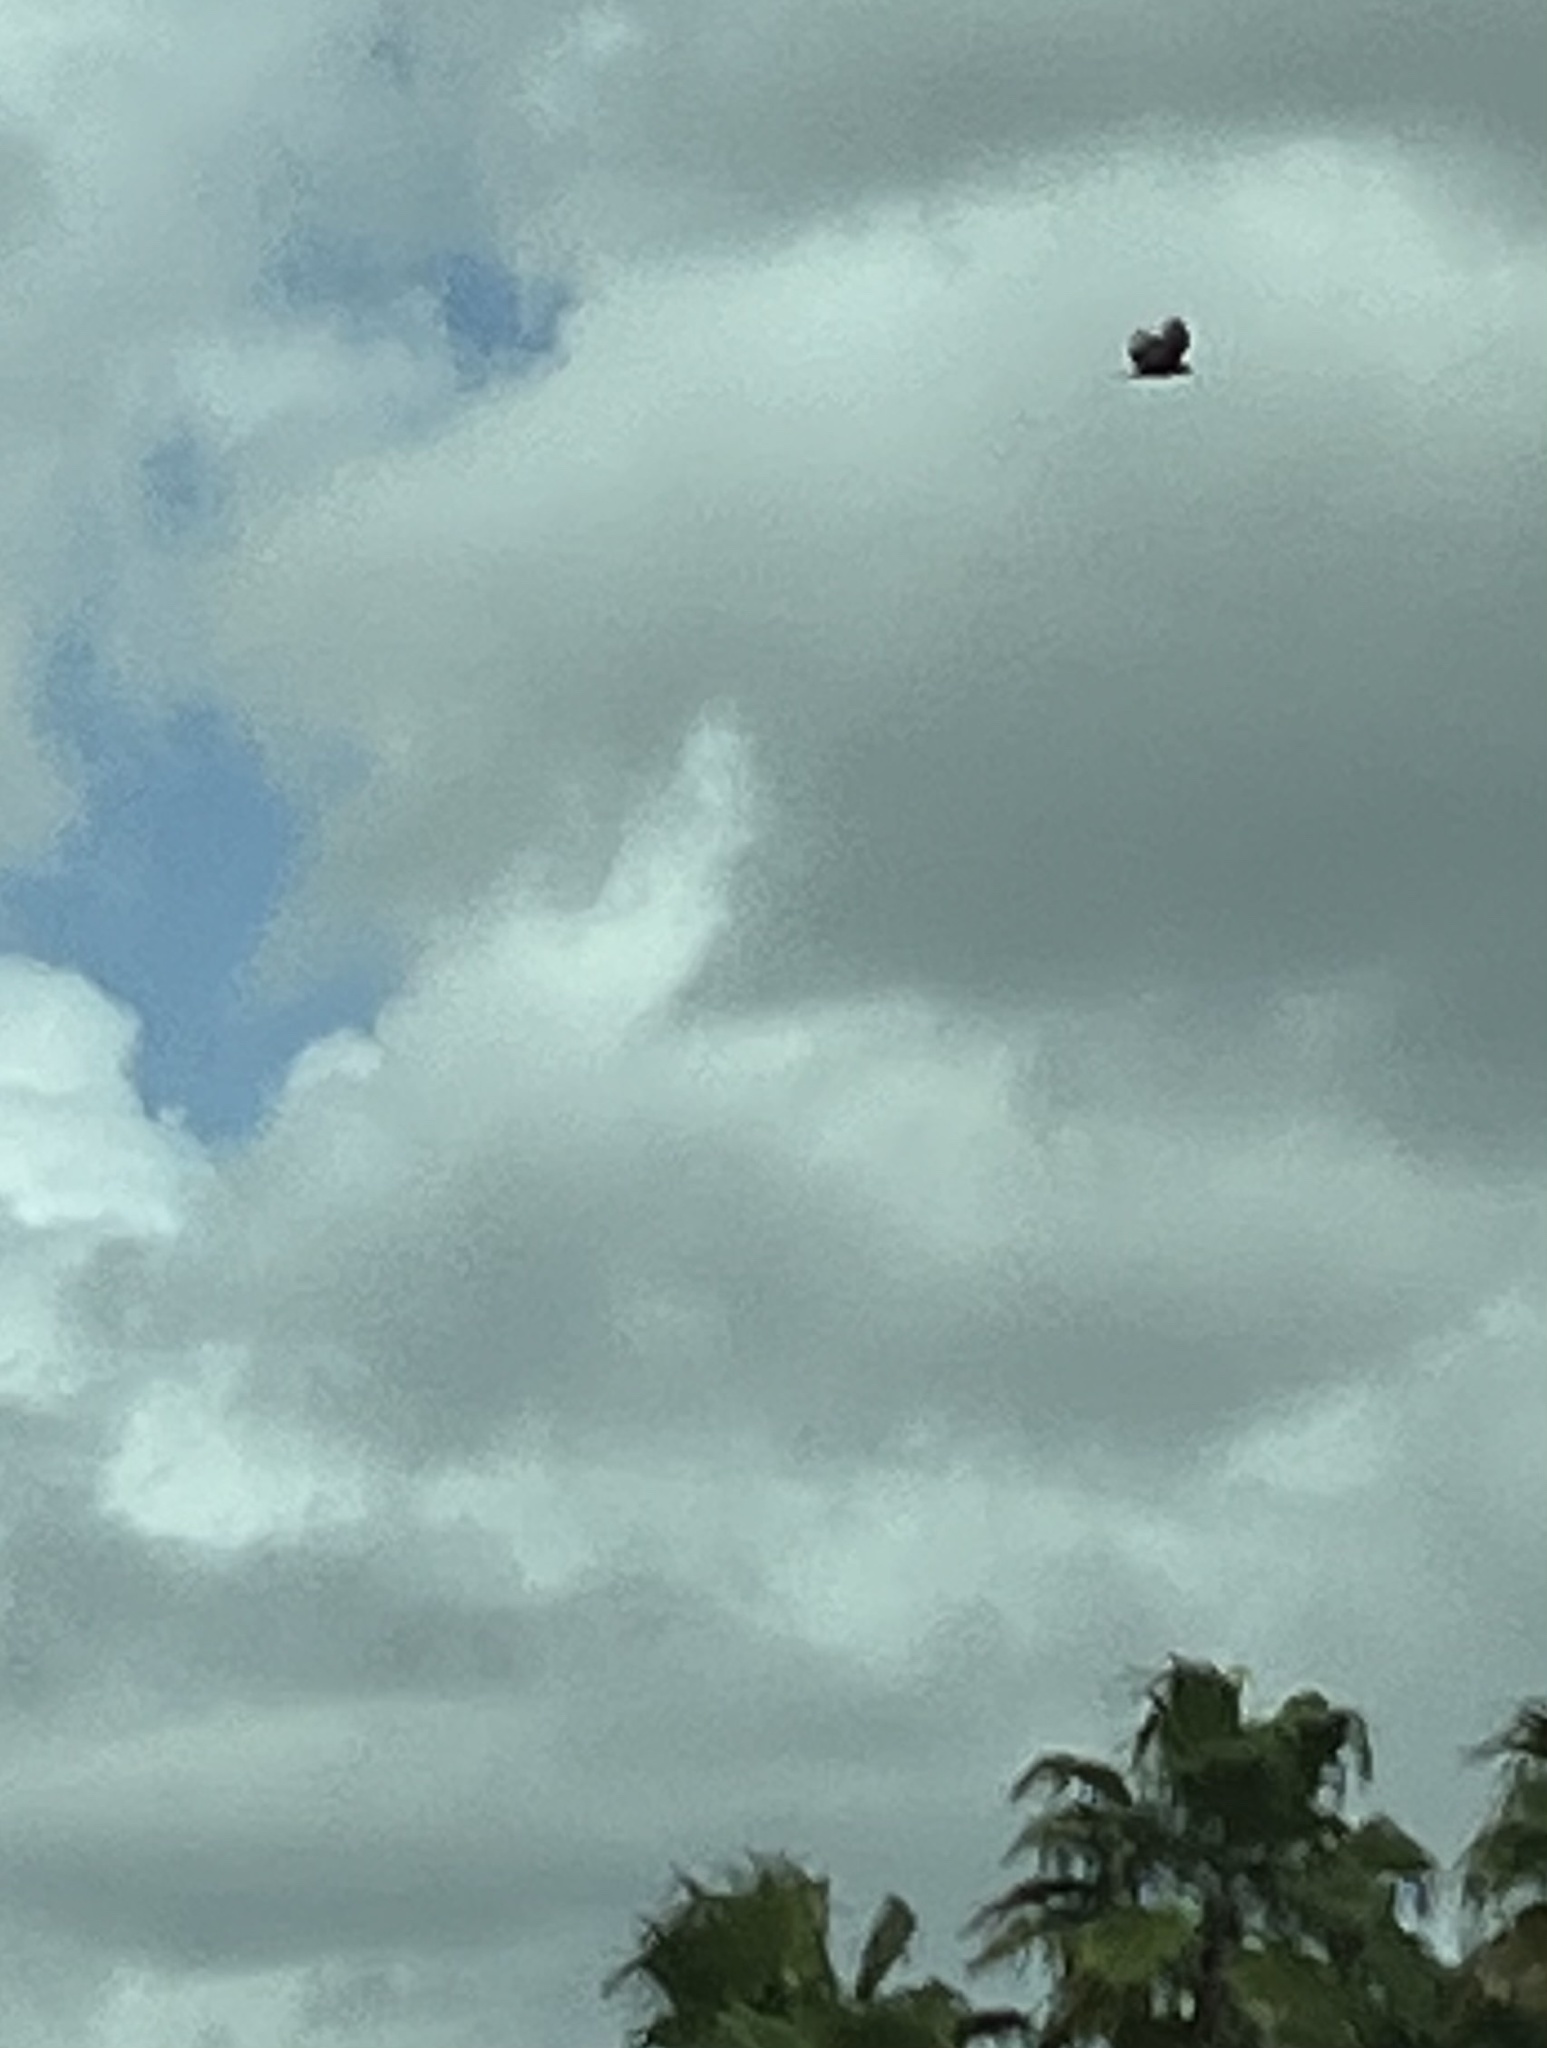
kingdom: Animalia
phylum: Chordata
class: Aves
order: Accipitriformes
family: Cathartidae
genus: Cathartes
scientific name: Cathartes aura
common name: Turkey vulture
